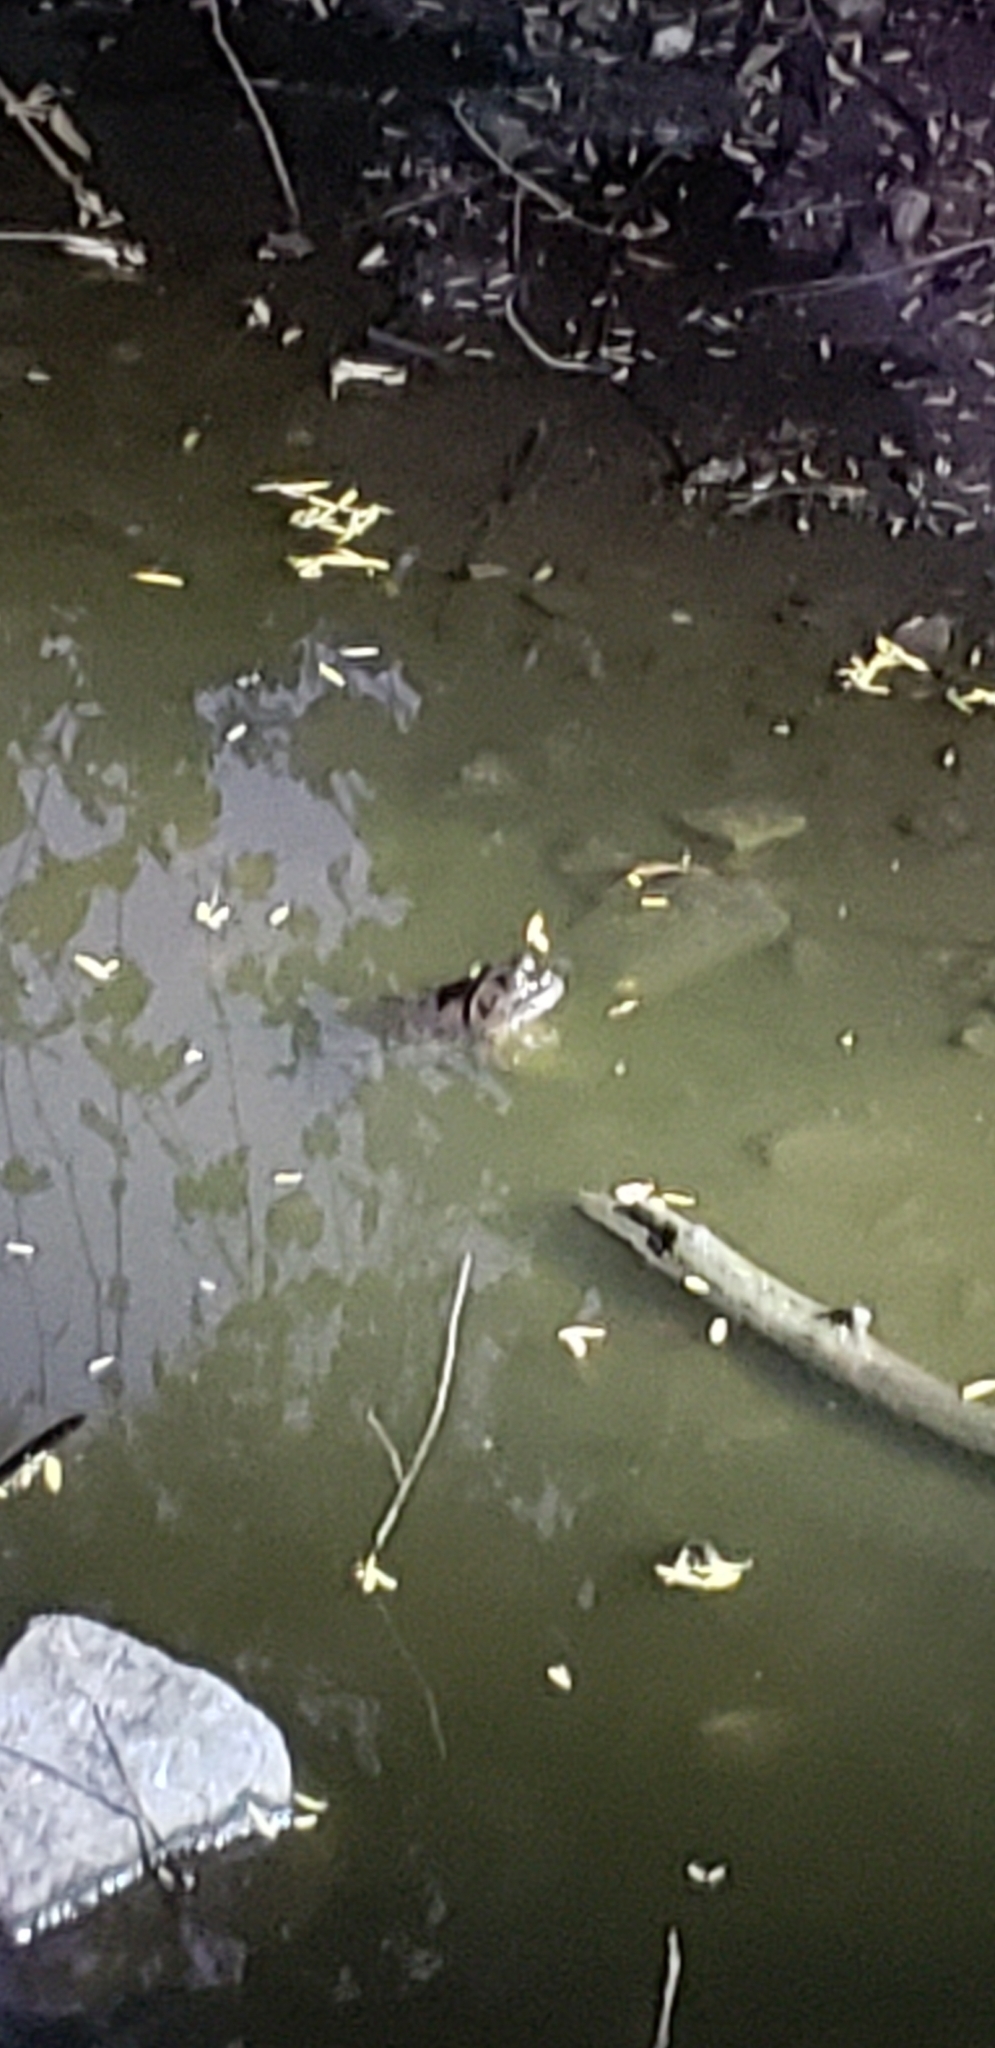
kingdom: Animalia
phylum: Chordata
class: Amphibia
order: Anura
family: Ranidae
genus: Lithobates
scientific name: Lithobates catesbeianus
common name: American bullfrog
